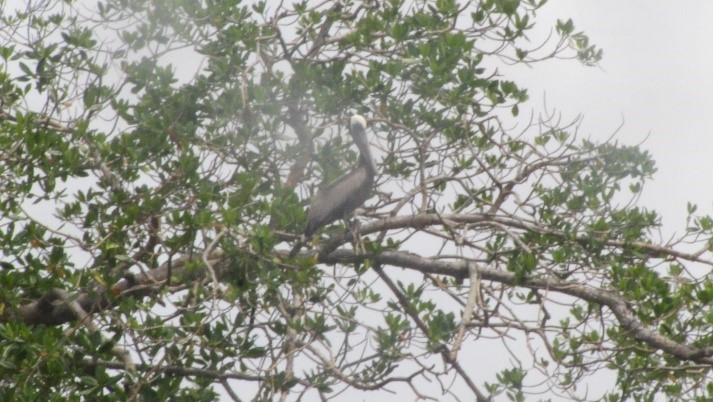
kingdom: Animalia
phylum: Chordata
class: Aves
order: Pelecaniformes
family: Pelecanidae
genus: Pelecanus
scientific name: Pelecanus occidentalis
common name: Brown pelican
